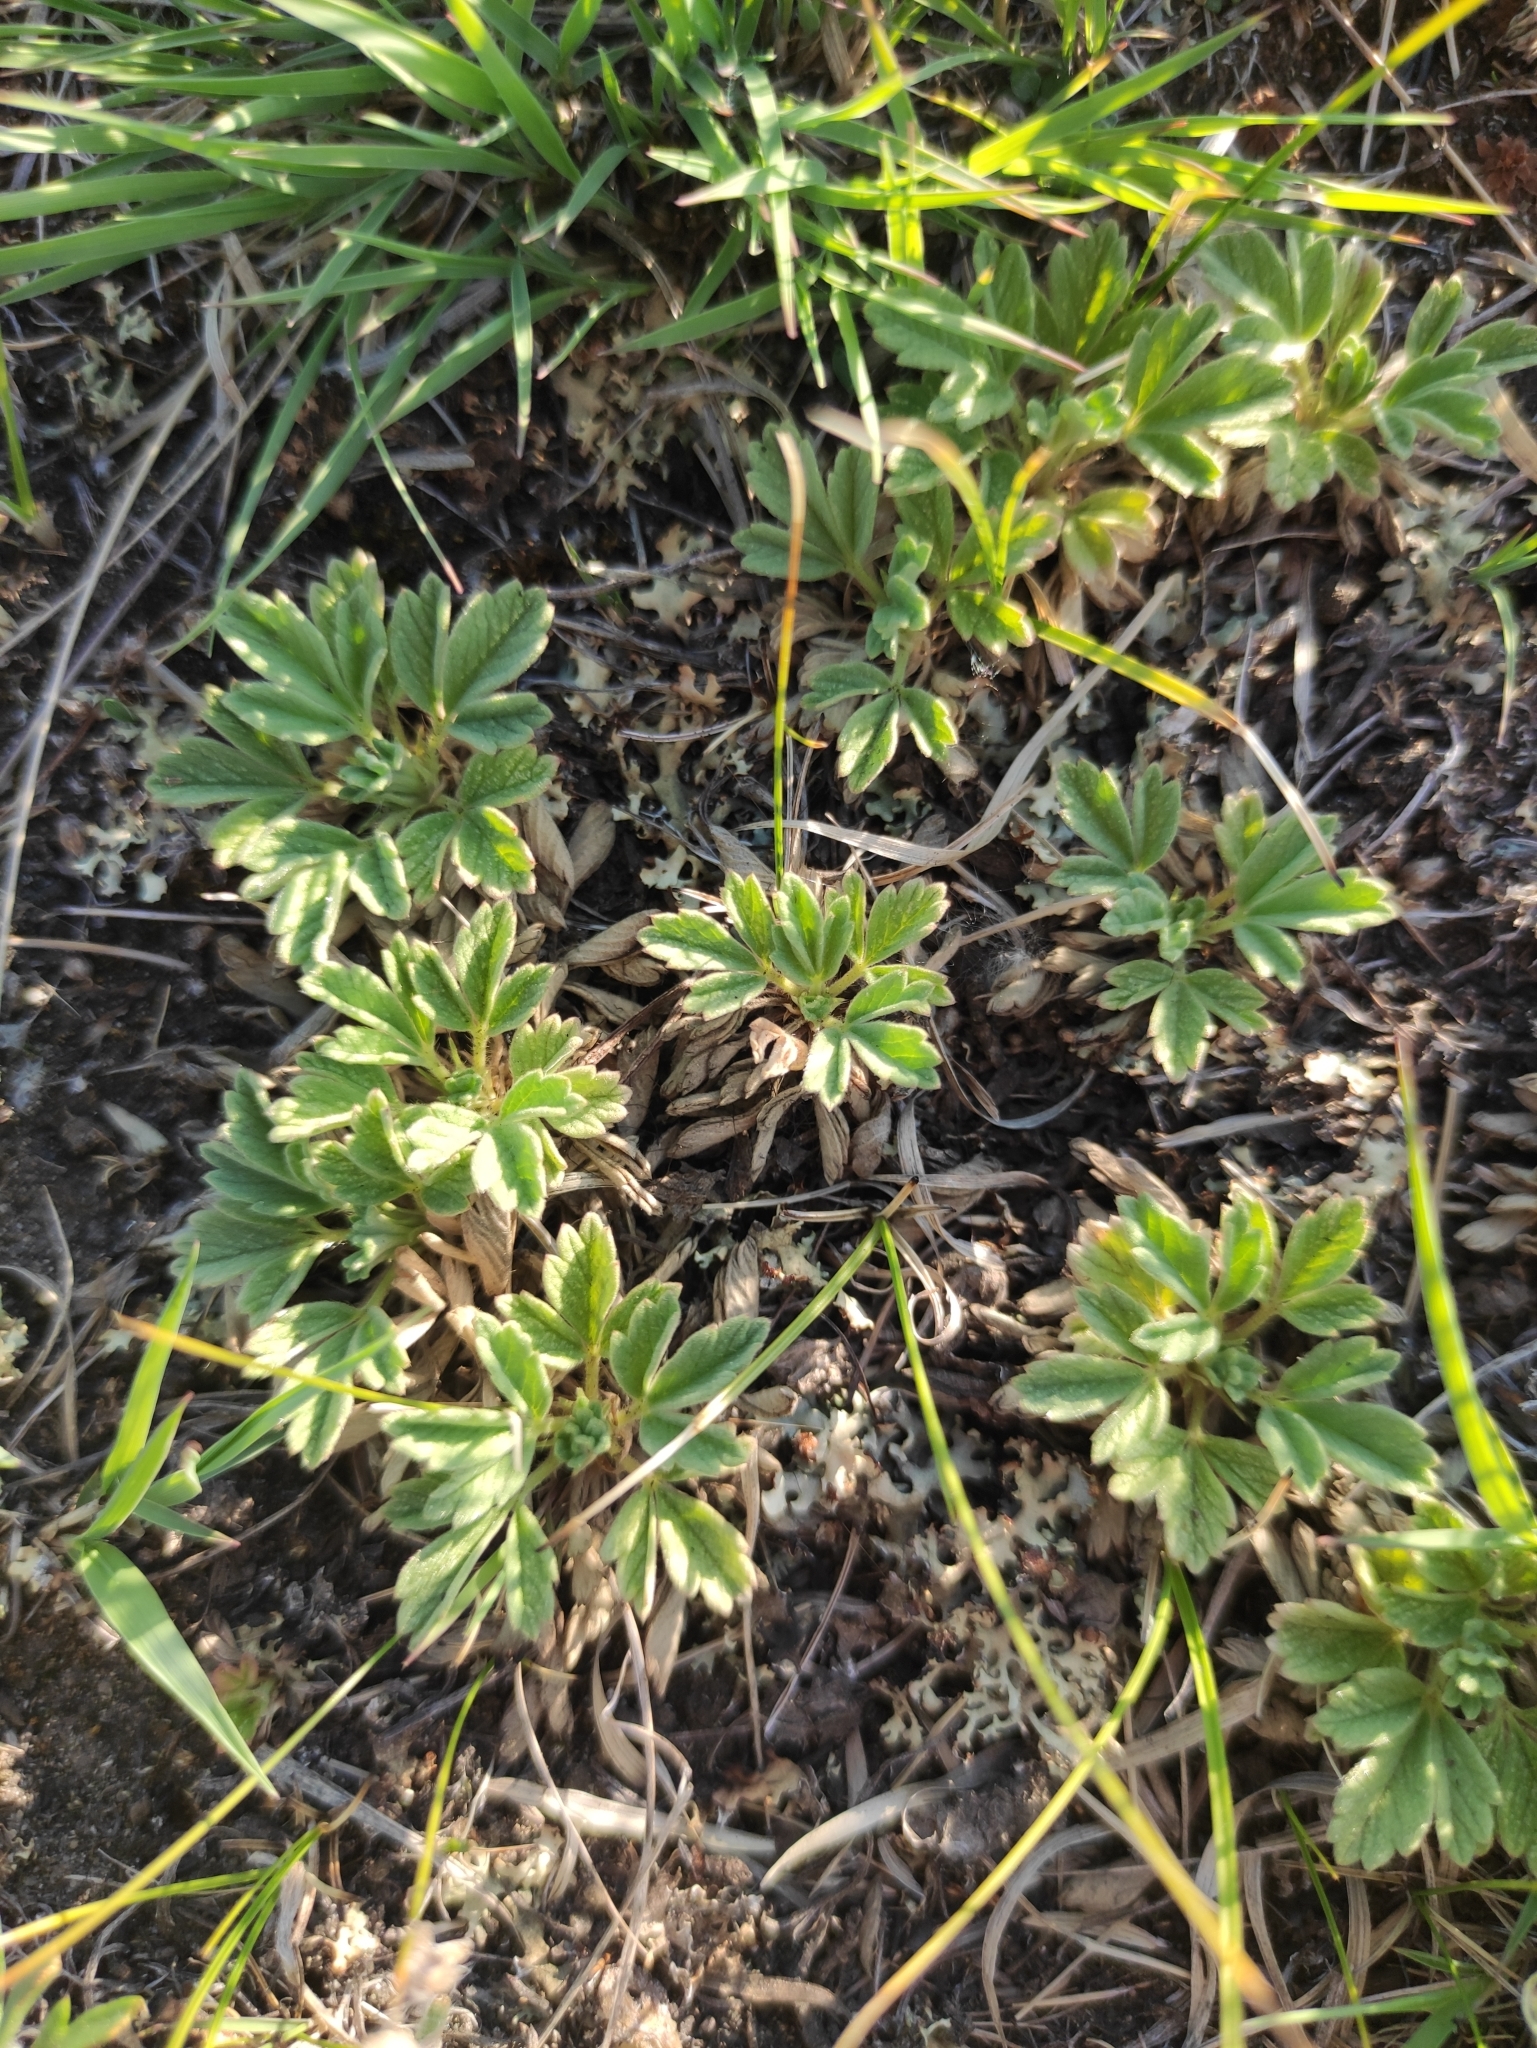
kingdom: Plantae
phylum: Tracheophyta
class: Magnoliopsida
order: Rosales
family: Rosaceae
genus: Potentilla
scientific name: Potentilla acaulis
